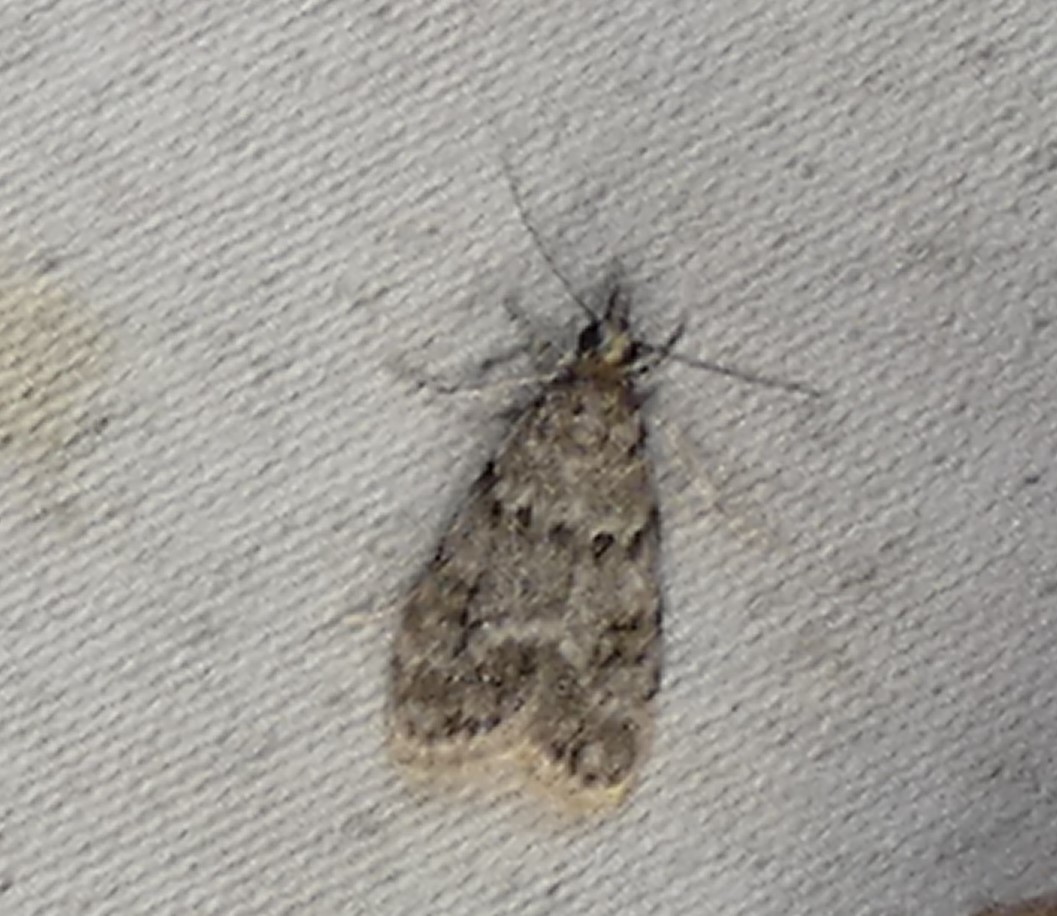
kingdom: Animalia
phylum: Arthropoda
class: Insecta
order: Lepidoptera
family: Crambidae
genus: Eudonia
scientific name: Eudonia heterosalis
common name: Mcdunnough's eudonia
